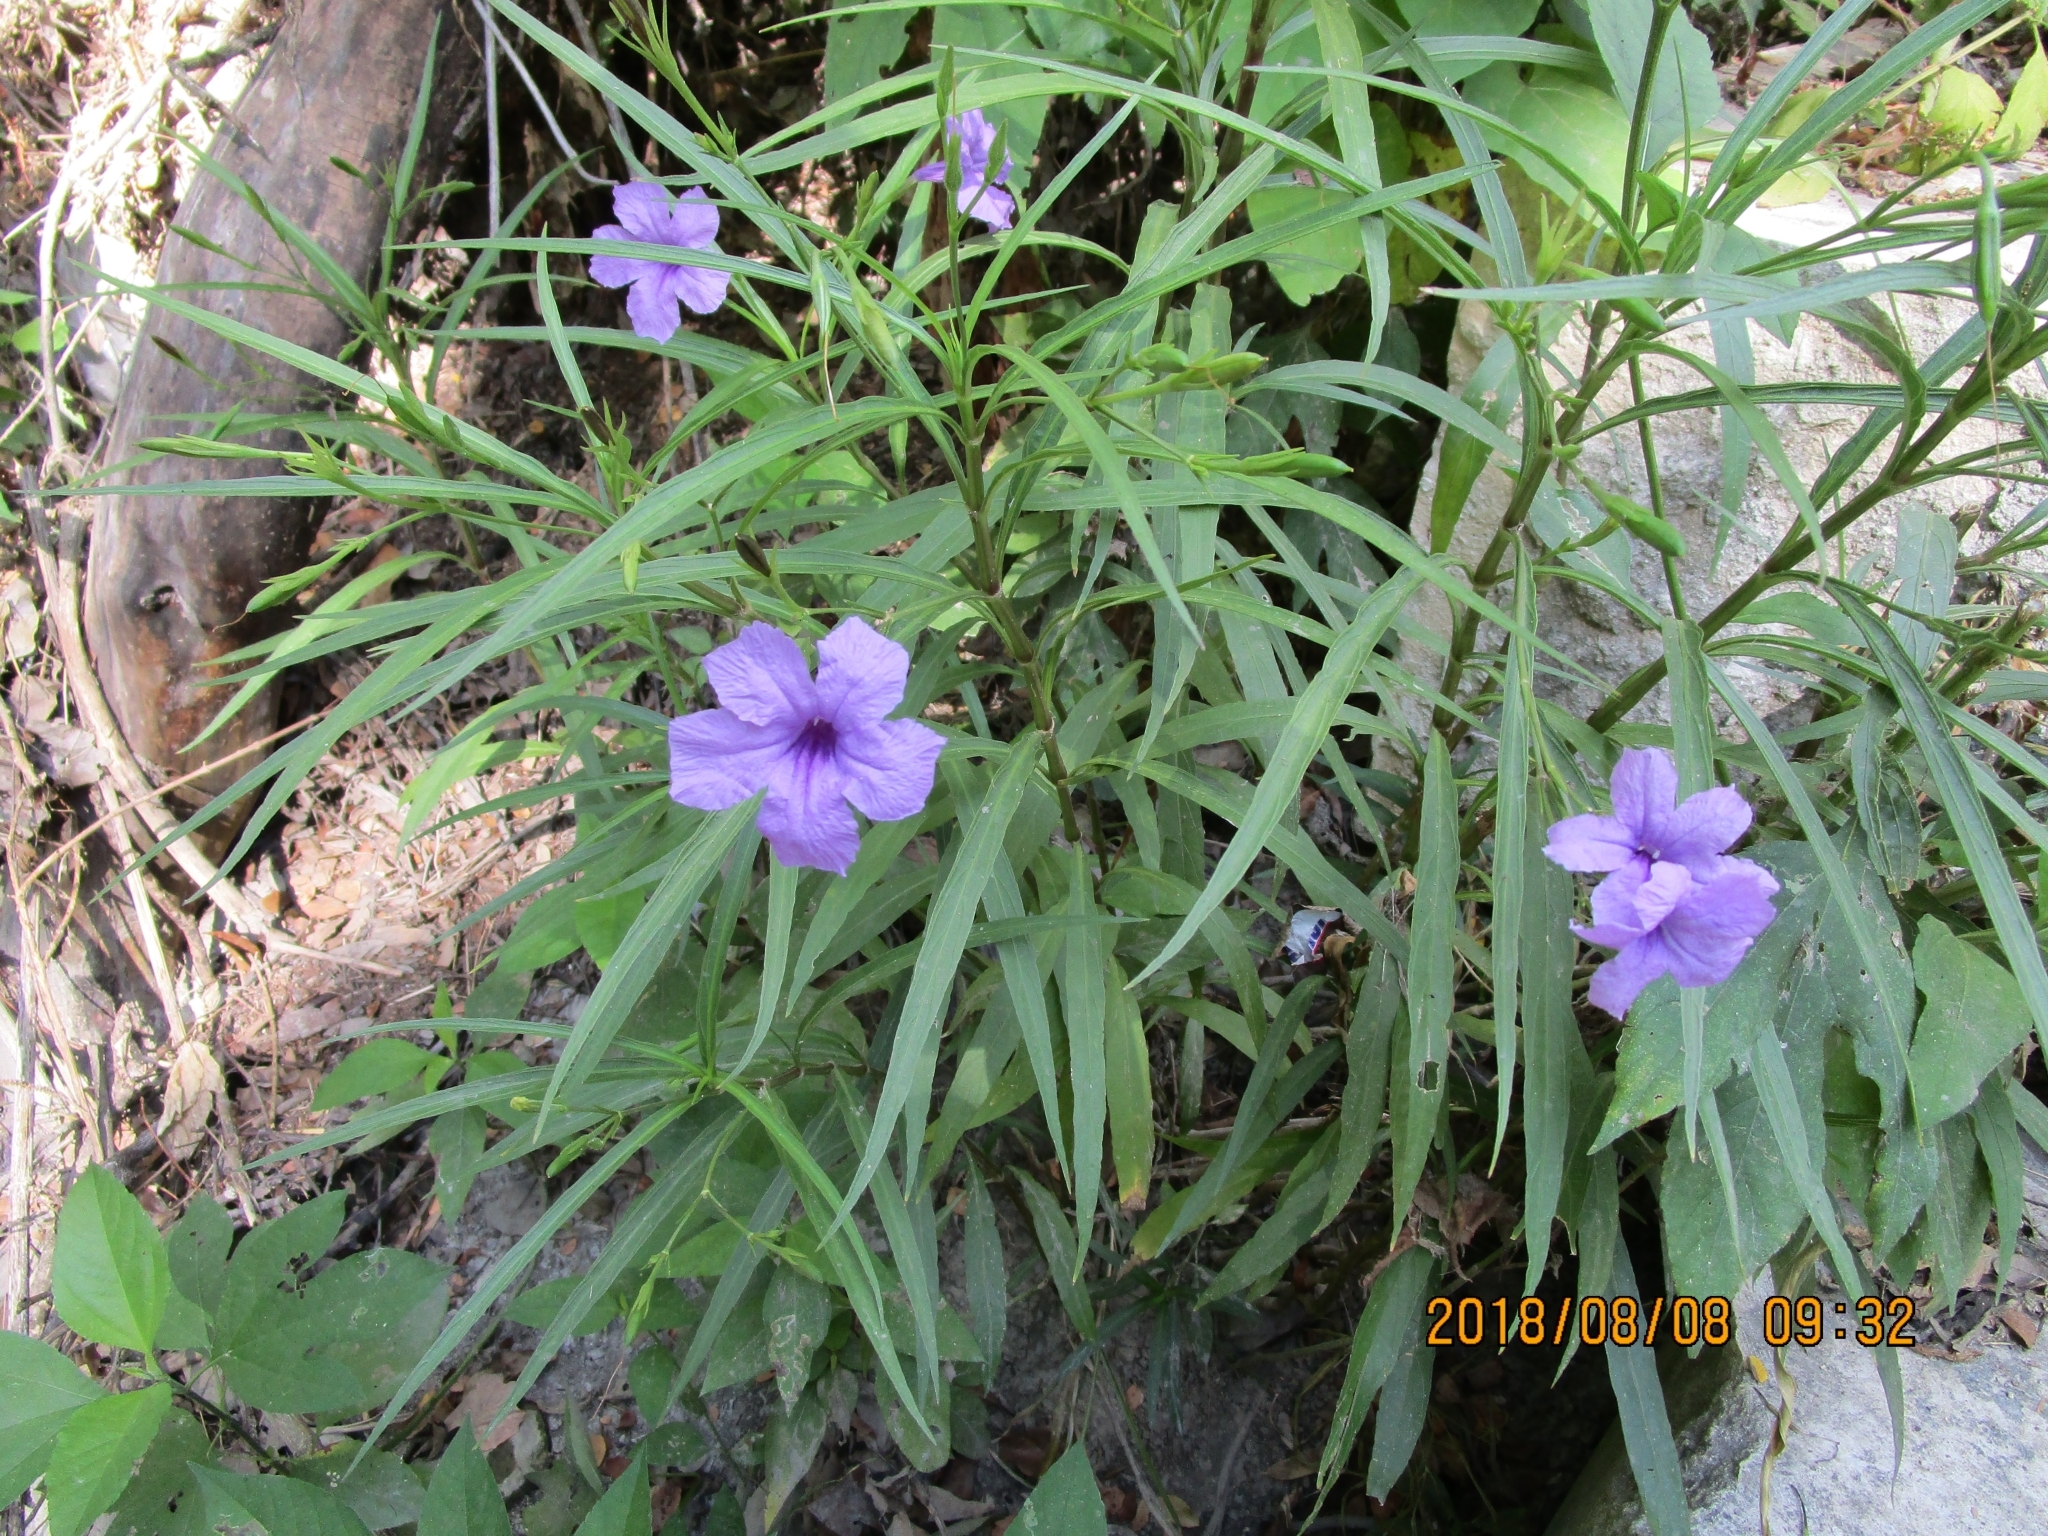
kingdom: Plantae
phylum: Tracheophyta
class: Magnoliopsida
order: Lamiales
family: Acanthaceae
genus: Ruellia
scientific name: Ruellia simplex
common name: Softseed wild petunia
